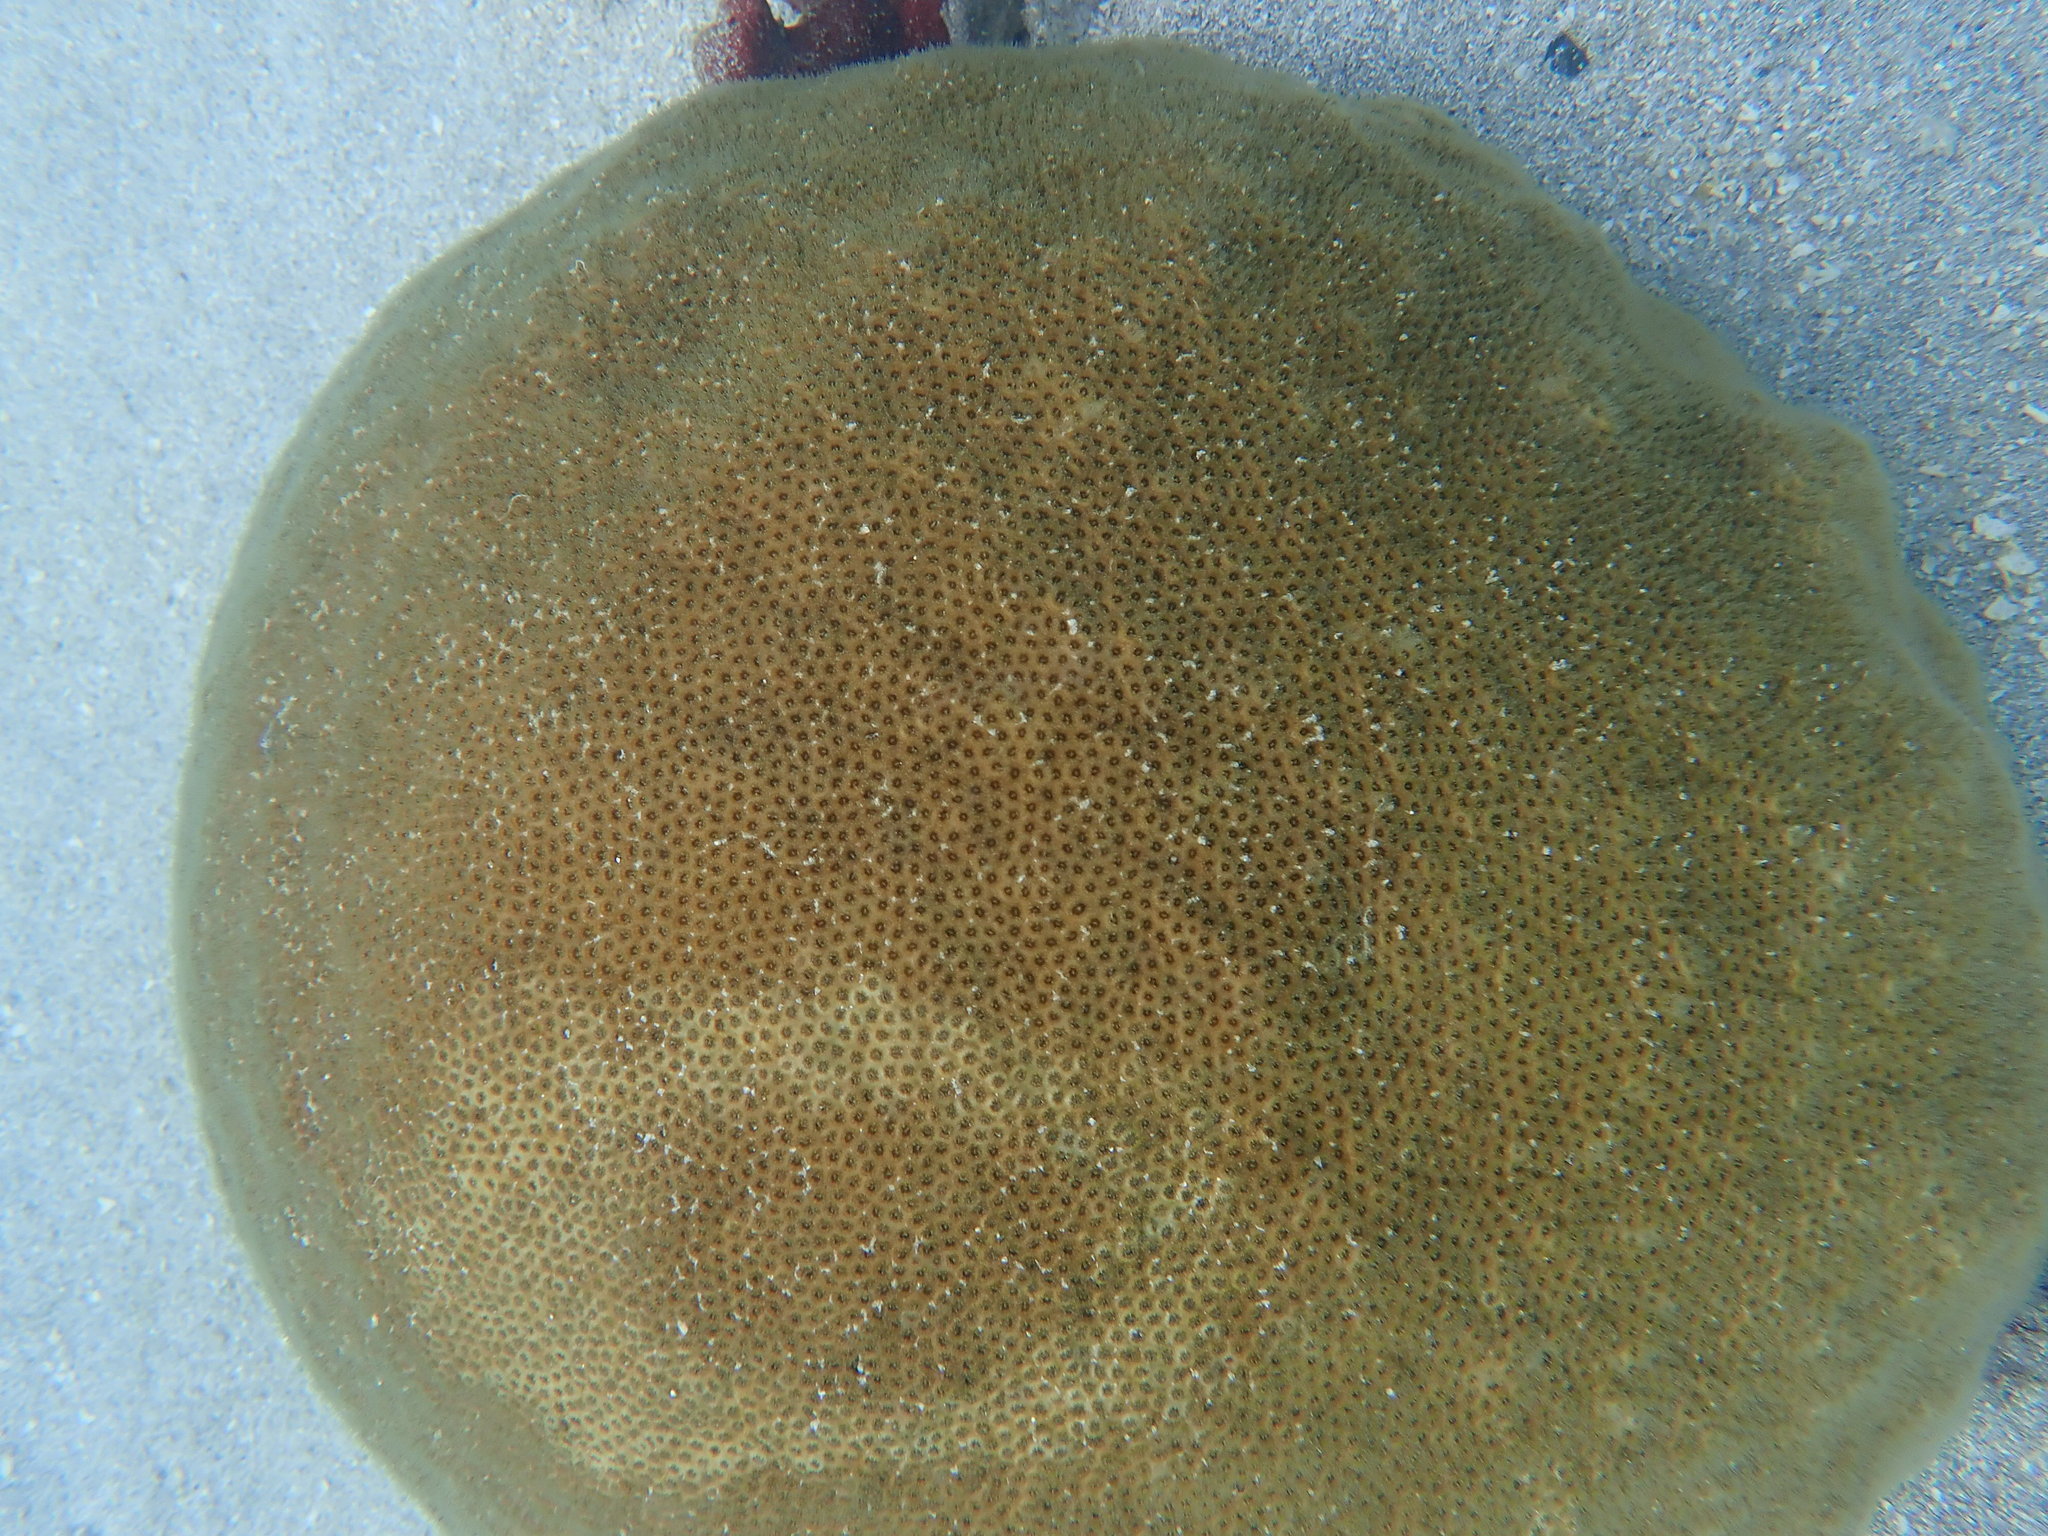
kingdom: Animalia
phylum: Cnidaria
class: Anthozoa
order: Scleractinia
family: Faviidae
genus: Solenastrea
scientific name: Solenastrea bournoni
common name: Smooth star coral
